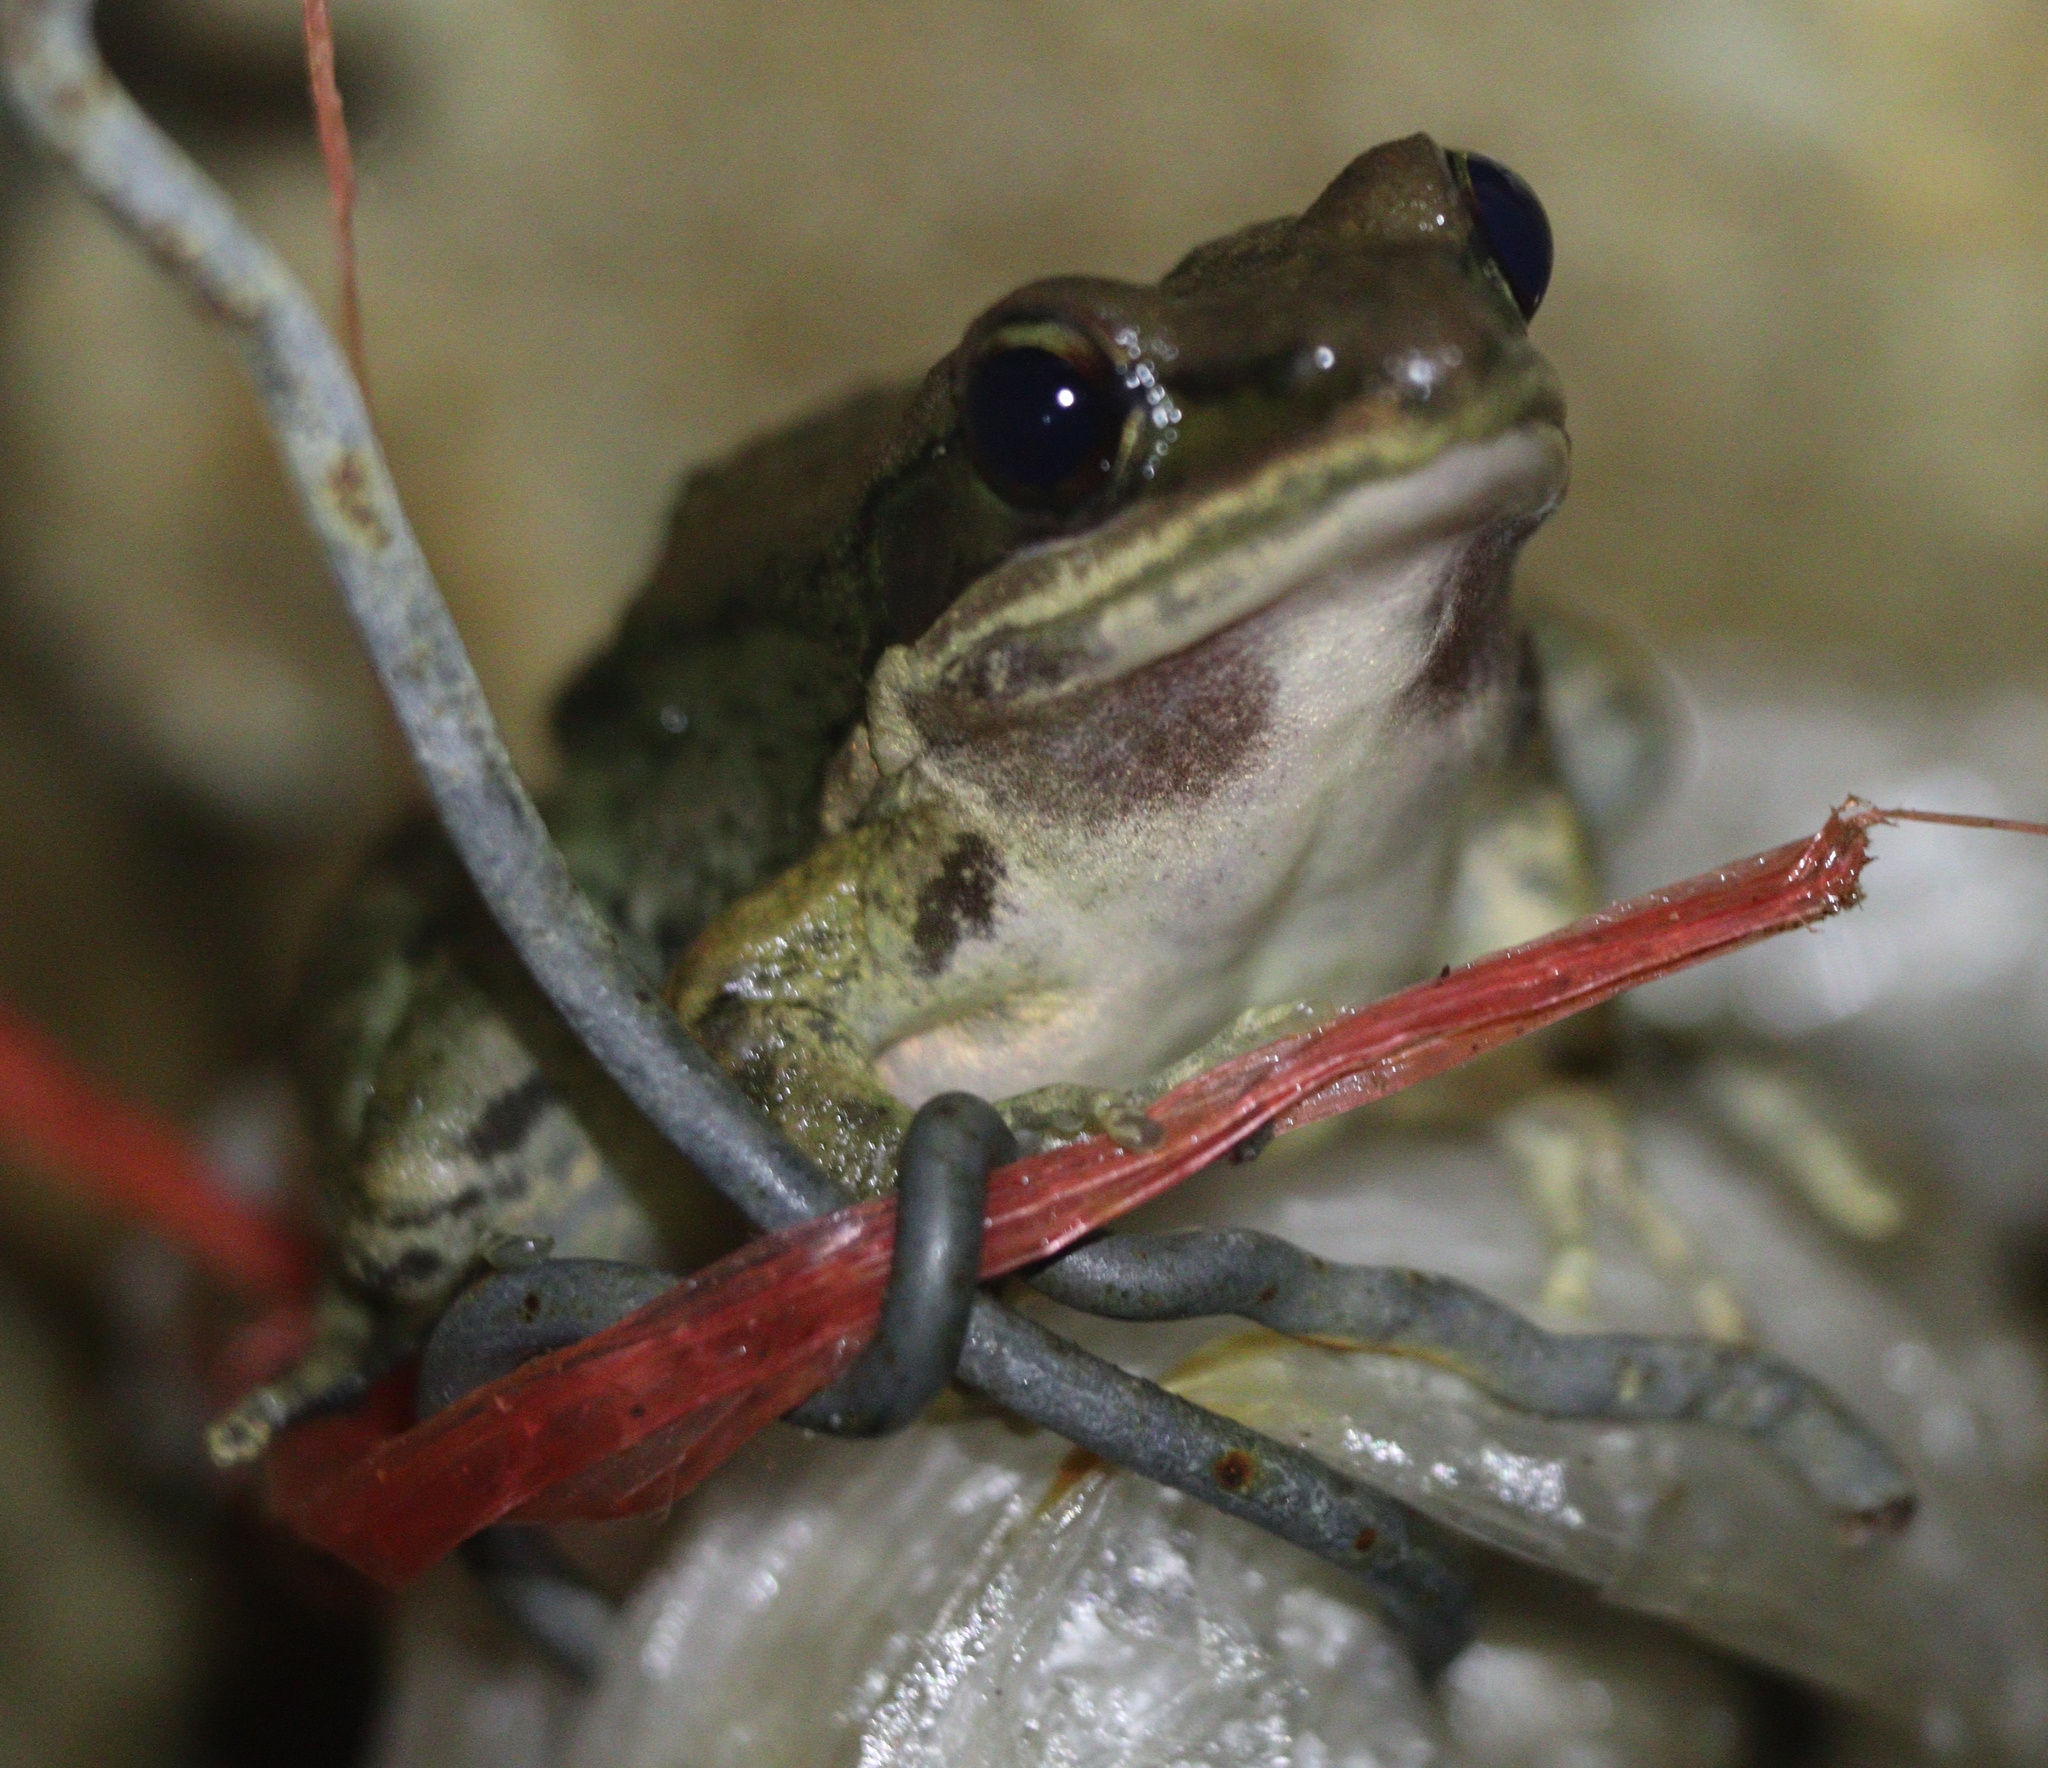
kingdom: Animalia
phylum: Chordata
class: Amphibia
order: Anura
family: Ranidae
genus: Sylvirana
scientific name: Sylvirana nigrovittata
